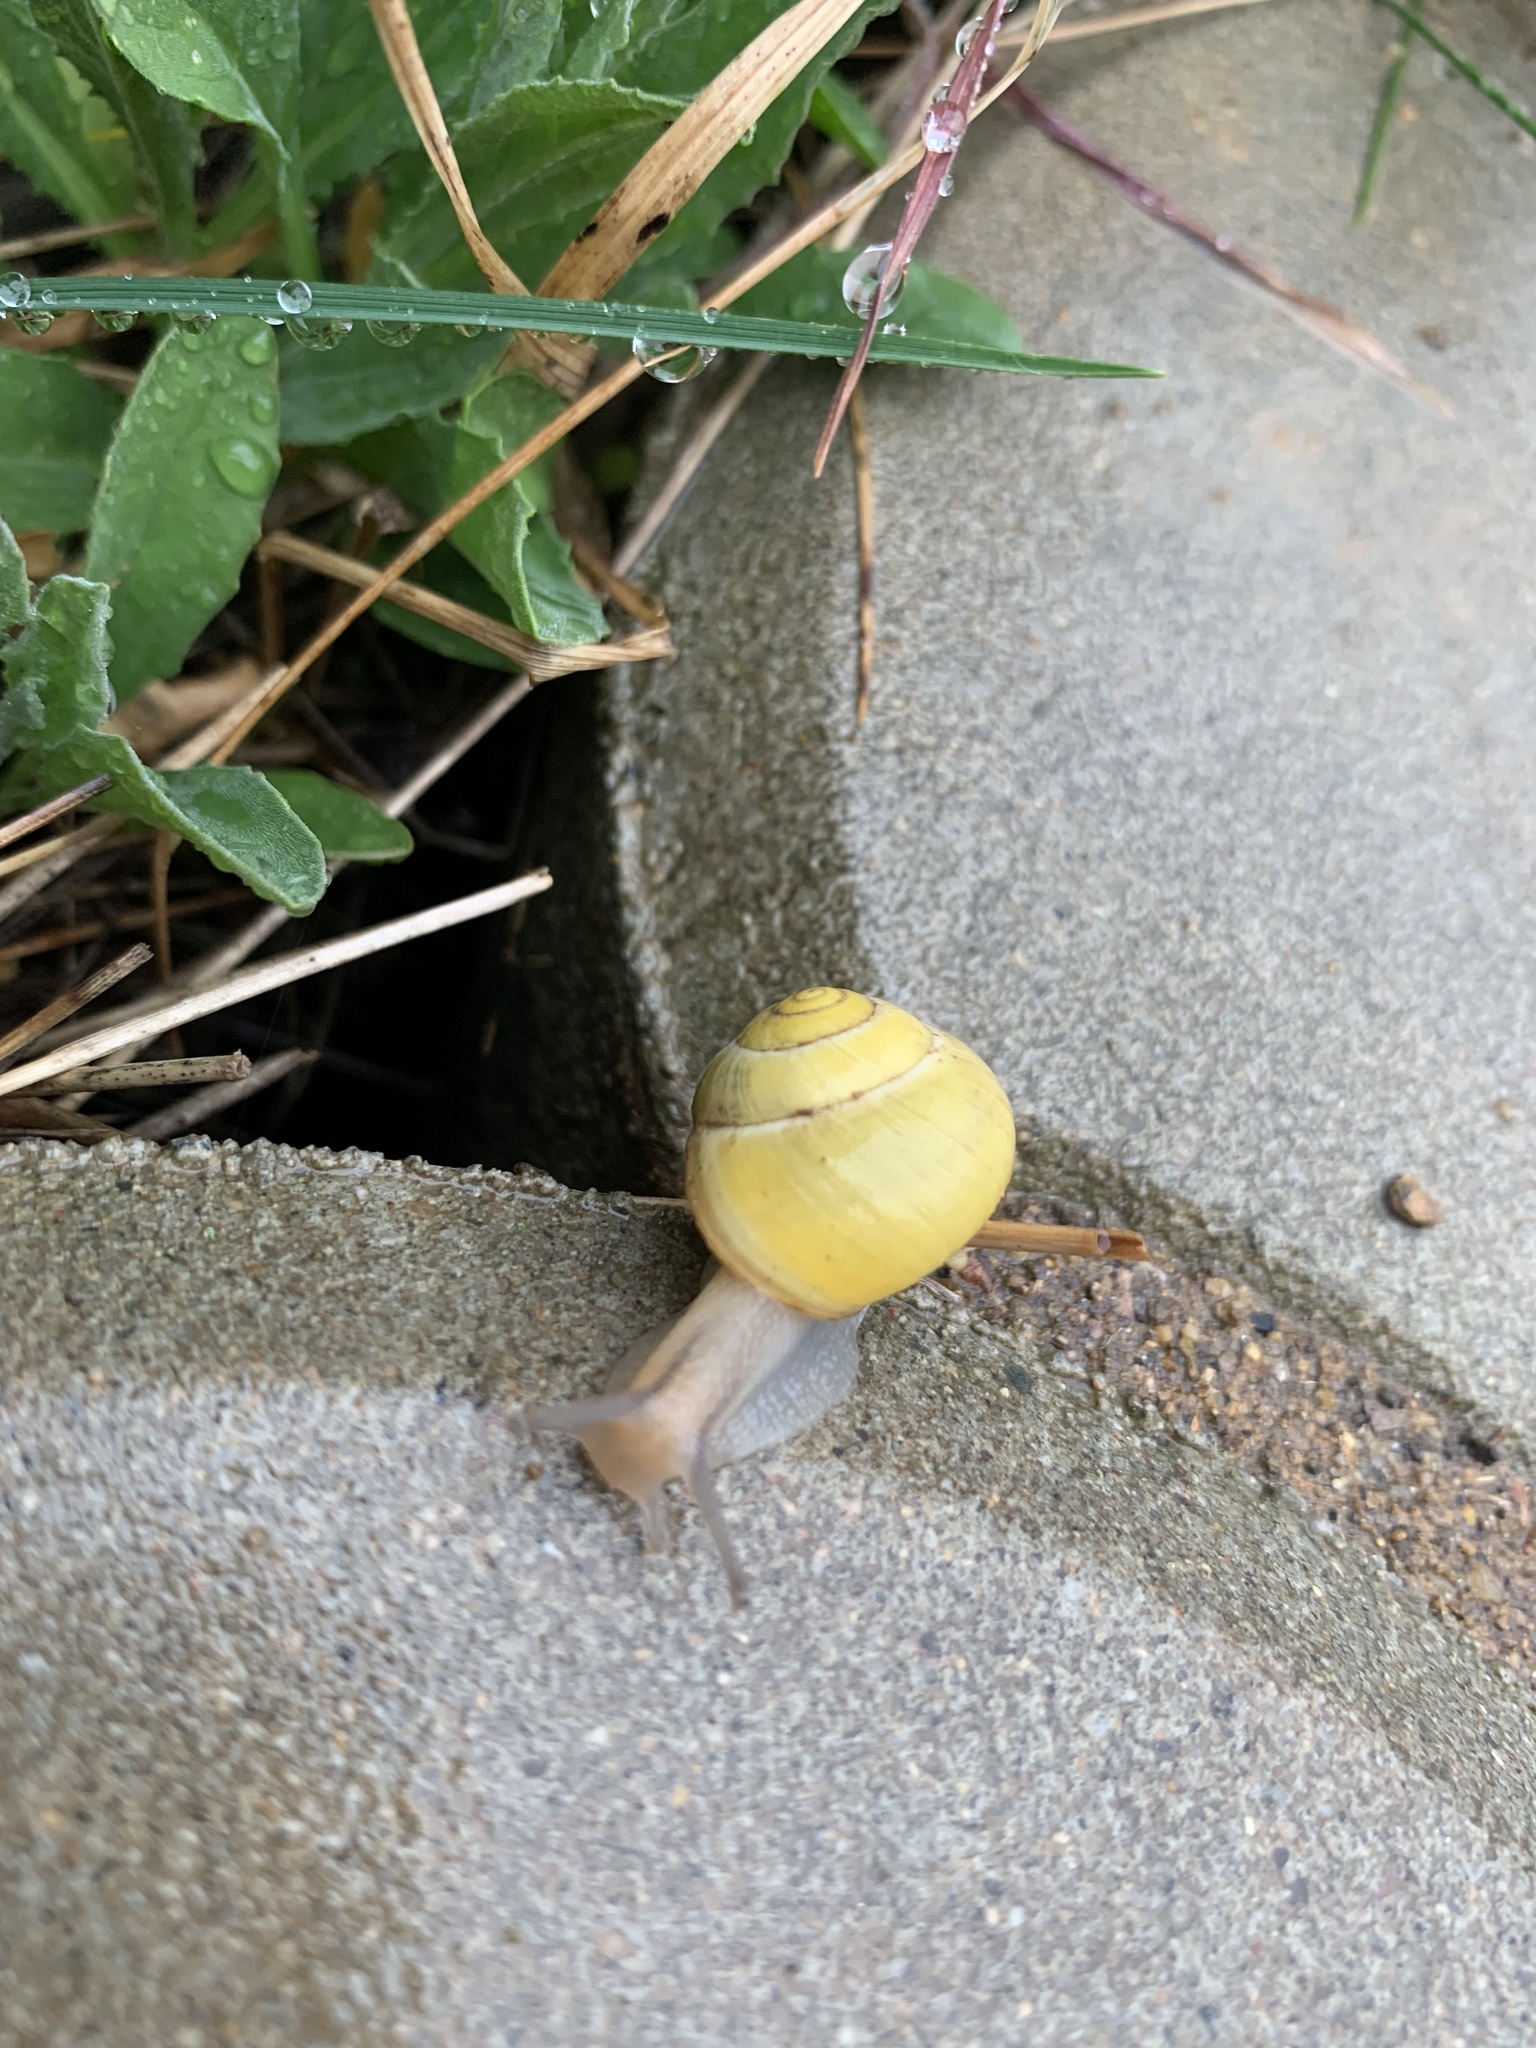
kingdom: Animalia
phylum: Mollusca
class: Gastropoda
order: Stylommatophora
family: Helicidae
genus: Cepaea
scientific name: Cepaea
